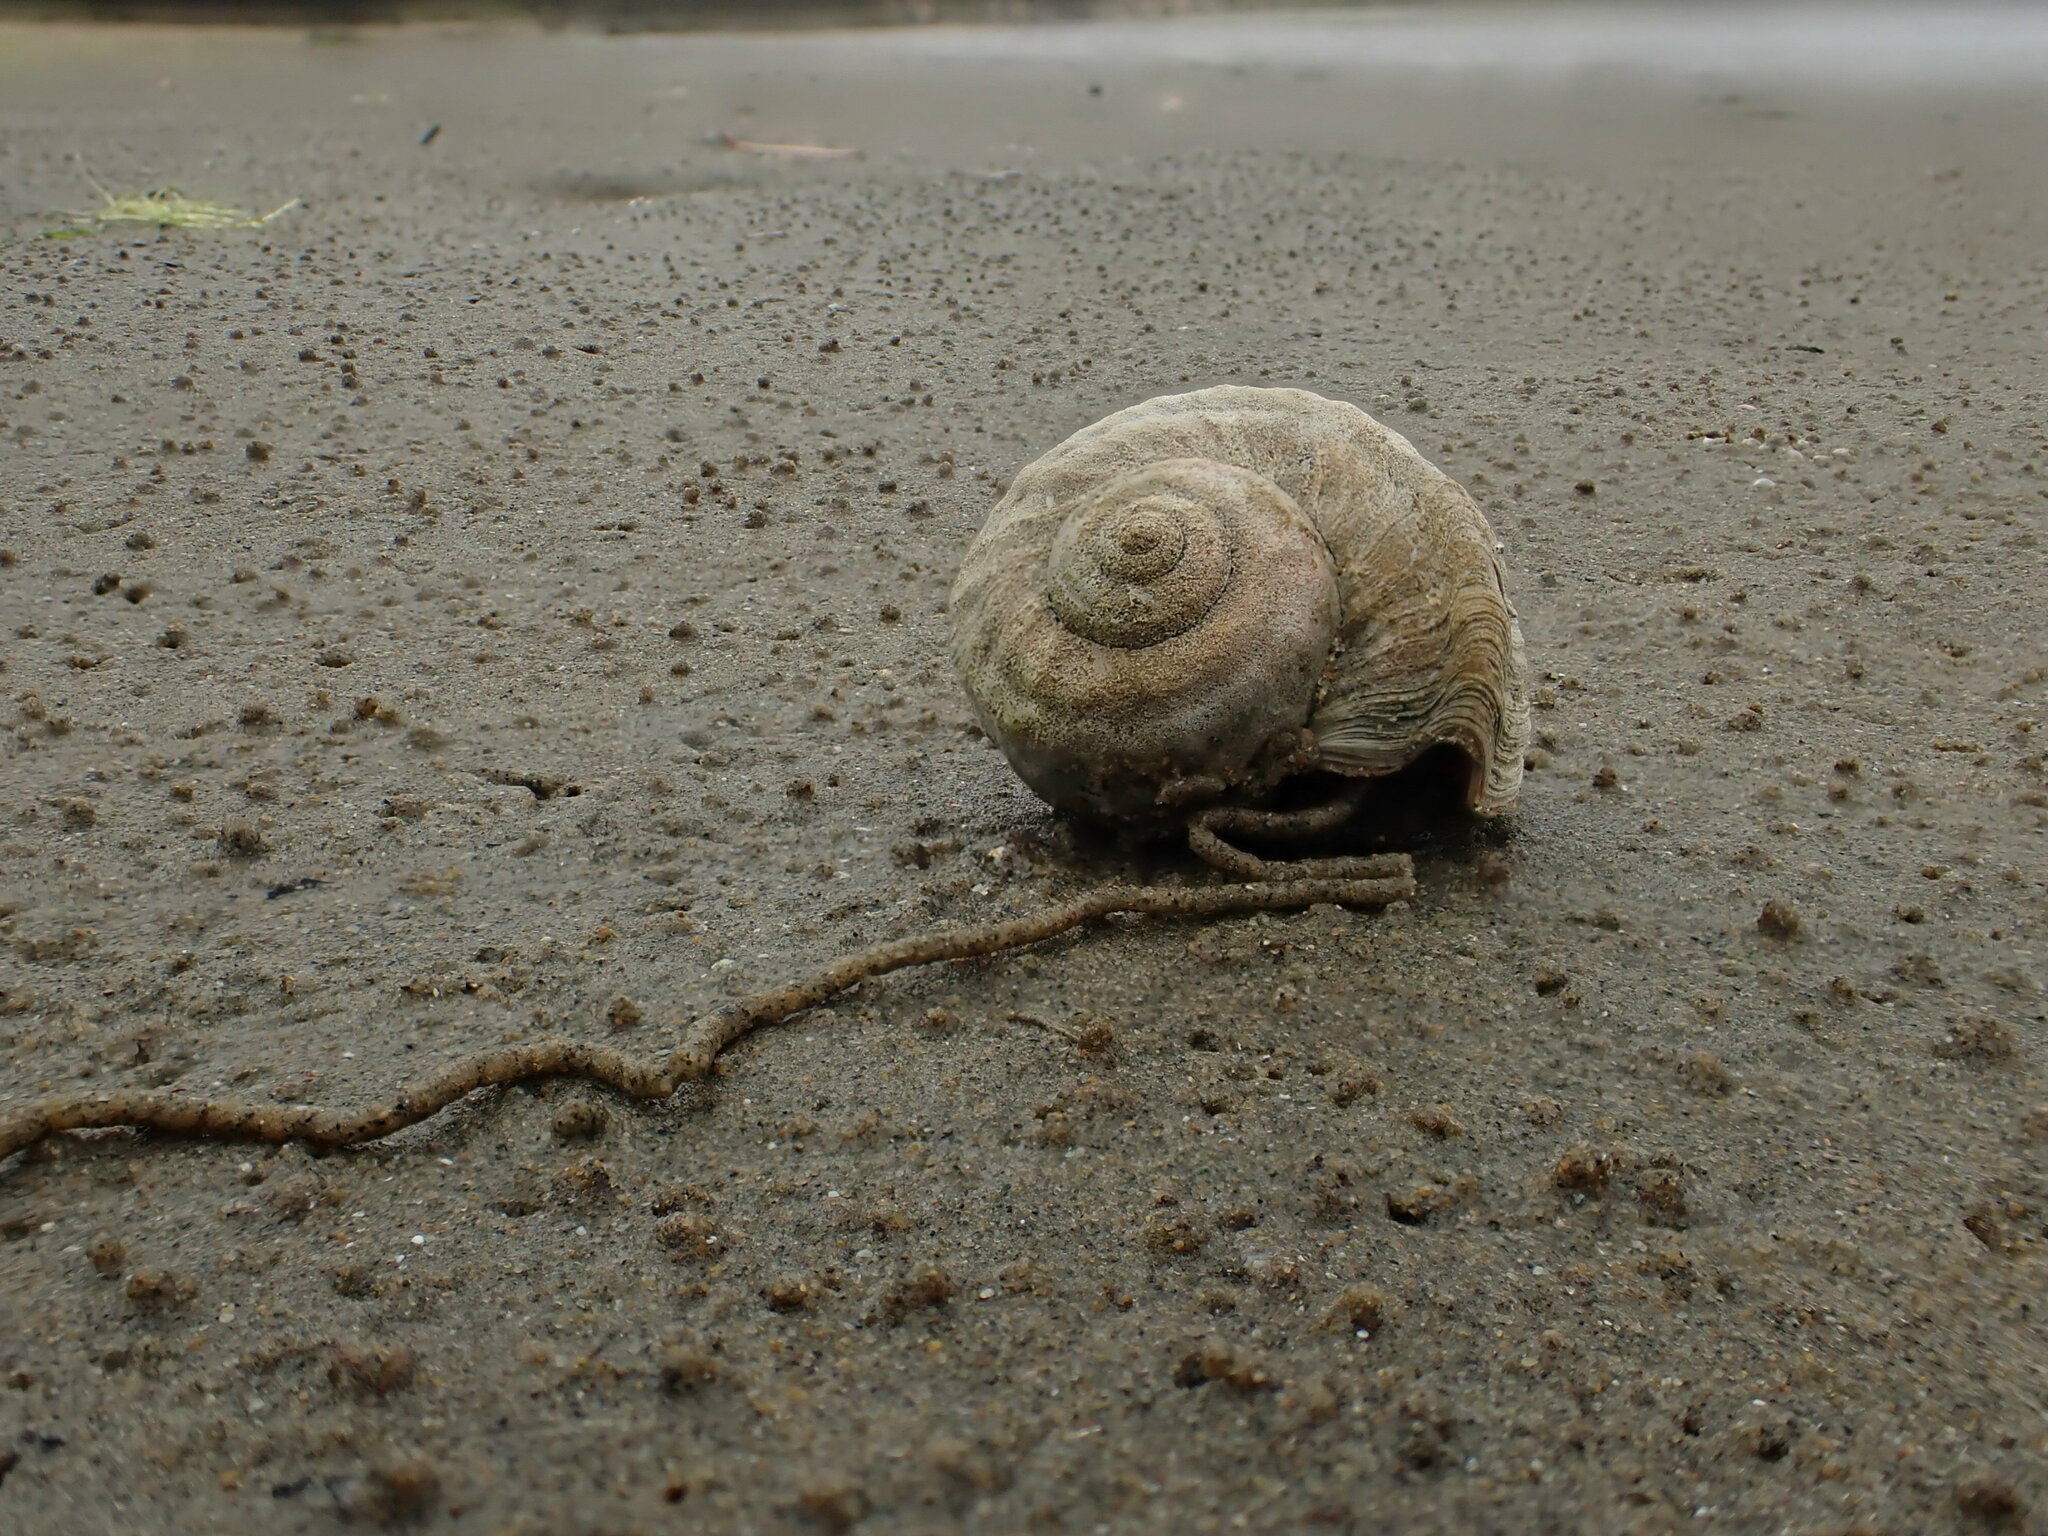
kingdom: Animalia
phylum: Mollusca
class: Gastropoda
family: Amphibolidae
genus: Amphibola
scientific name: Amphibola crenata
